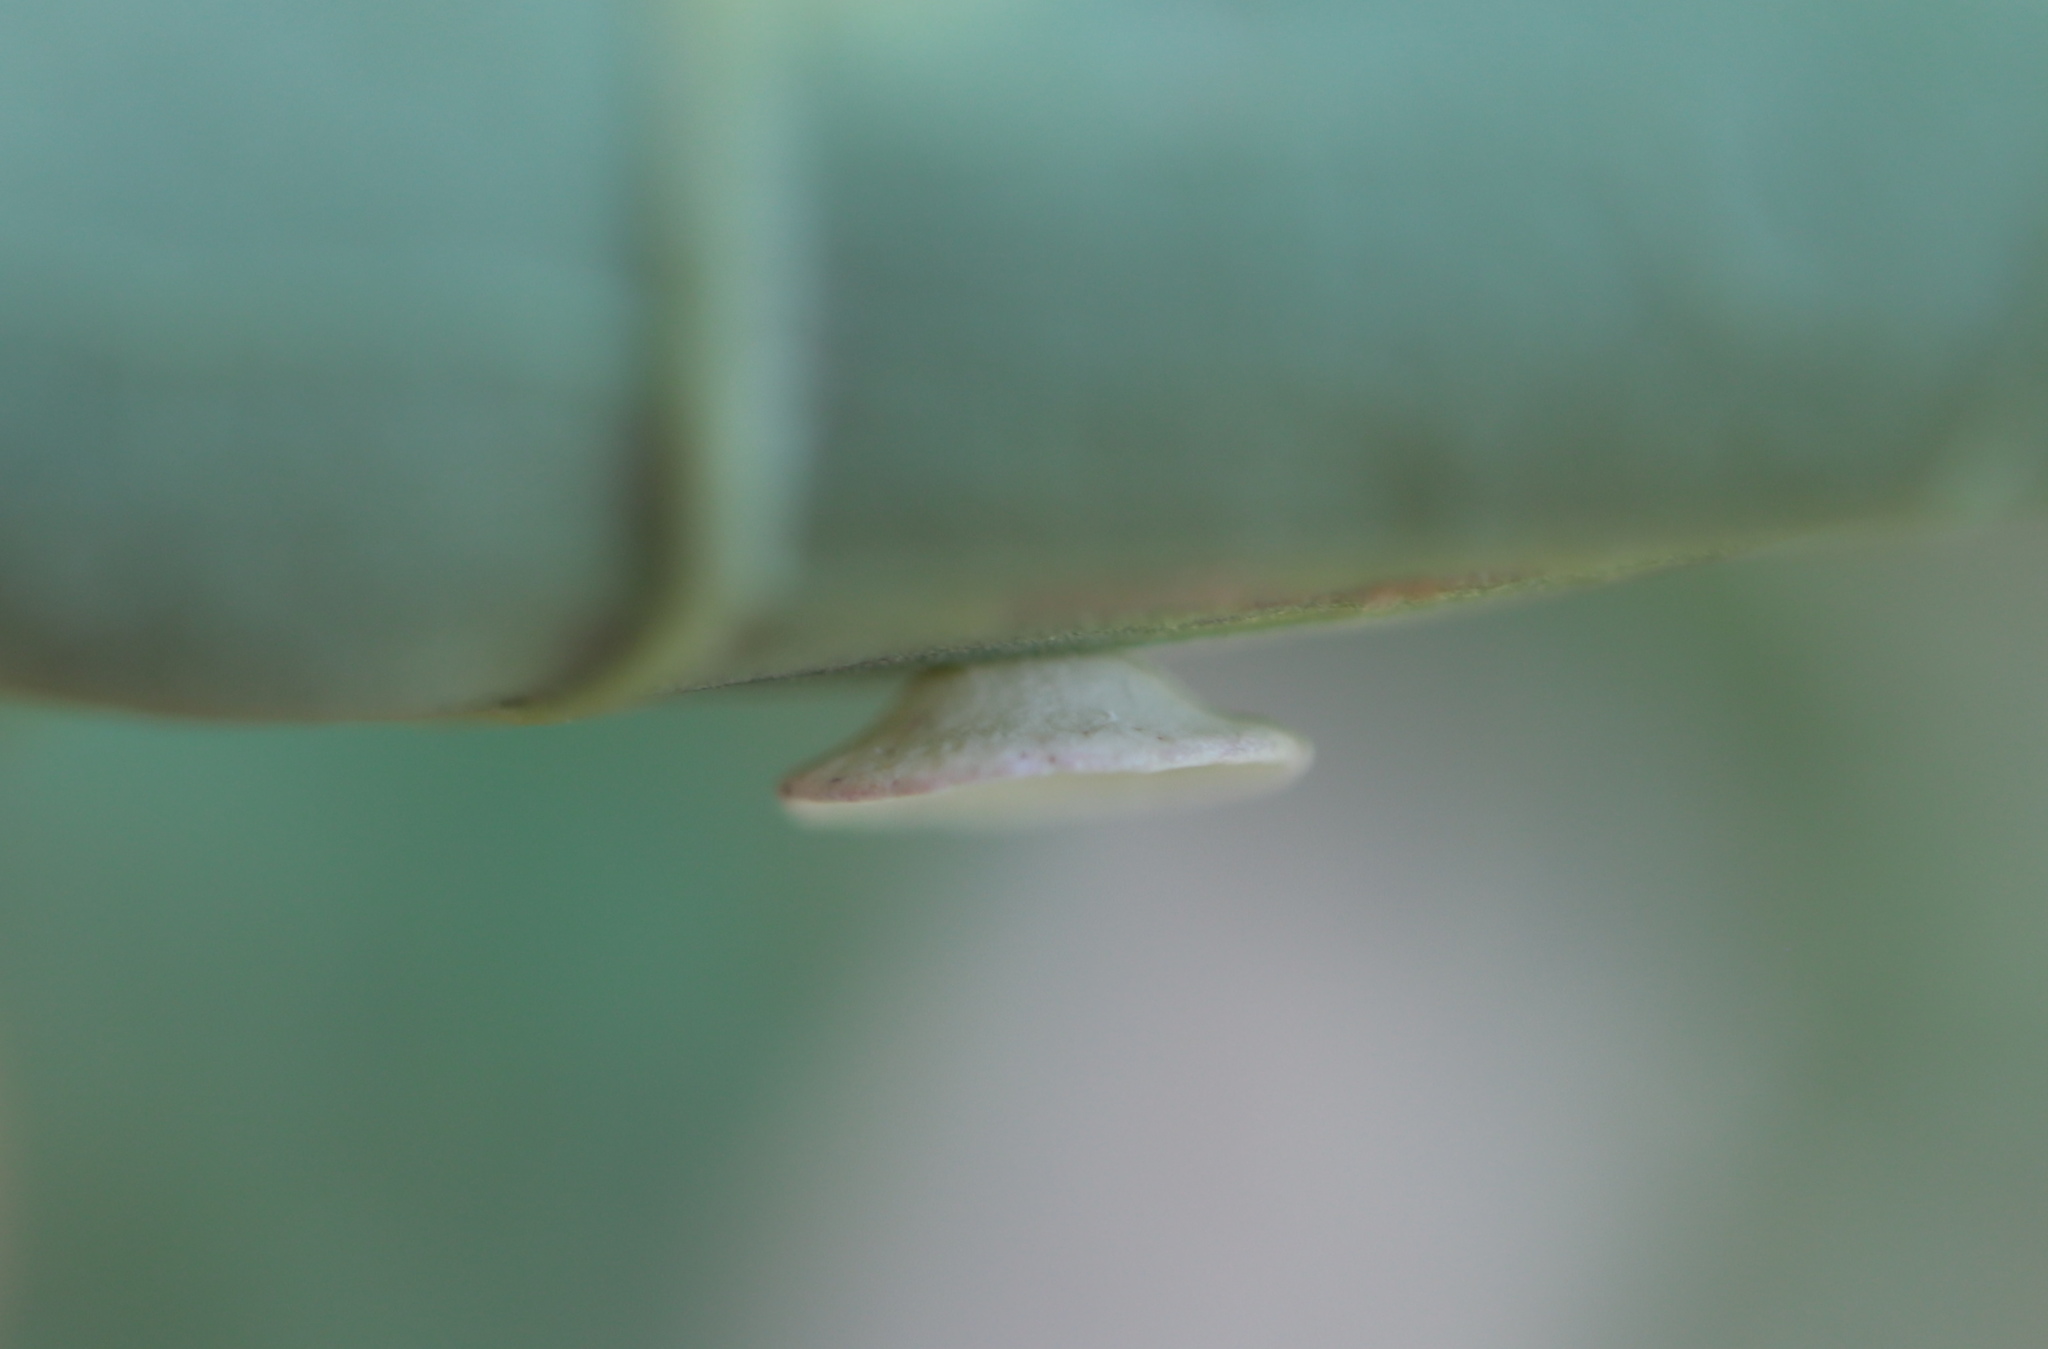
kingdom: Animalia
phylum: Arthropoda
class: Insecta
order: Hymenoptera
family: Cynipidae
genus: Phylloteras
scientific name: Phylloteras poculum
